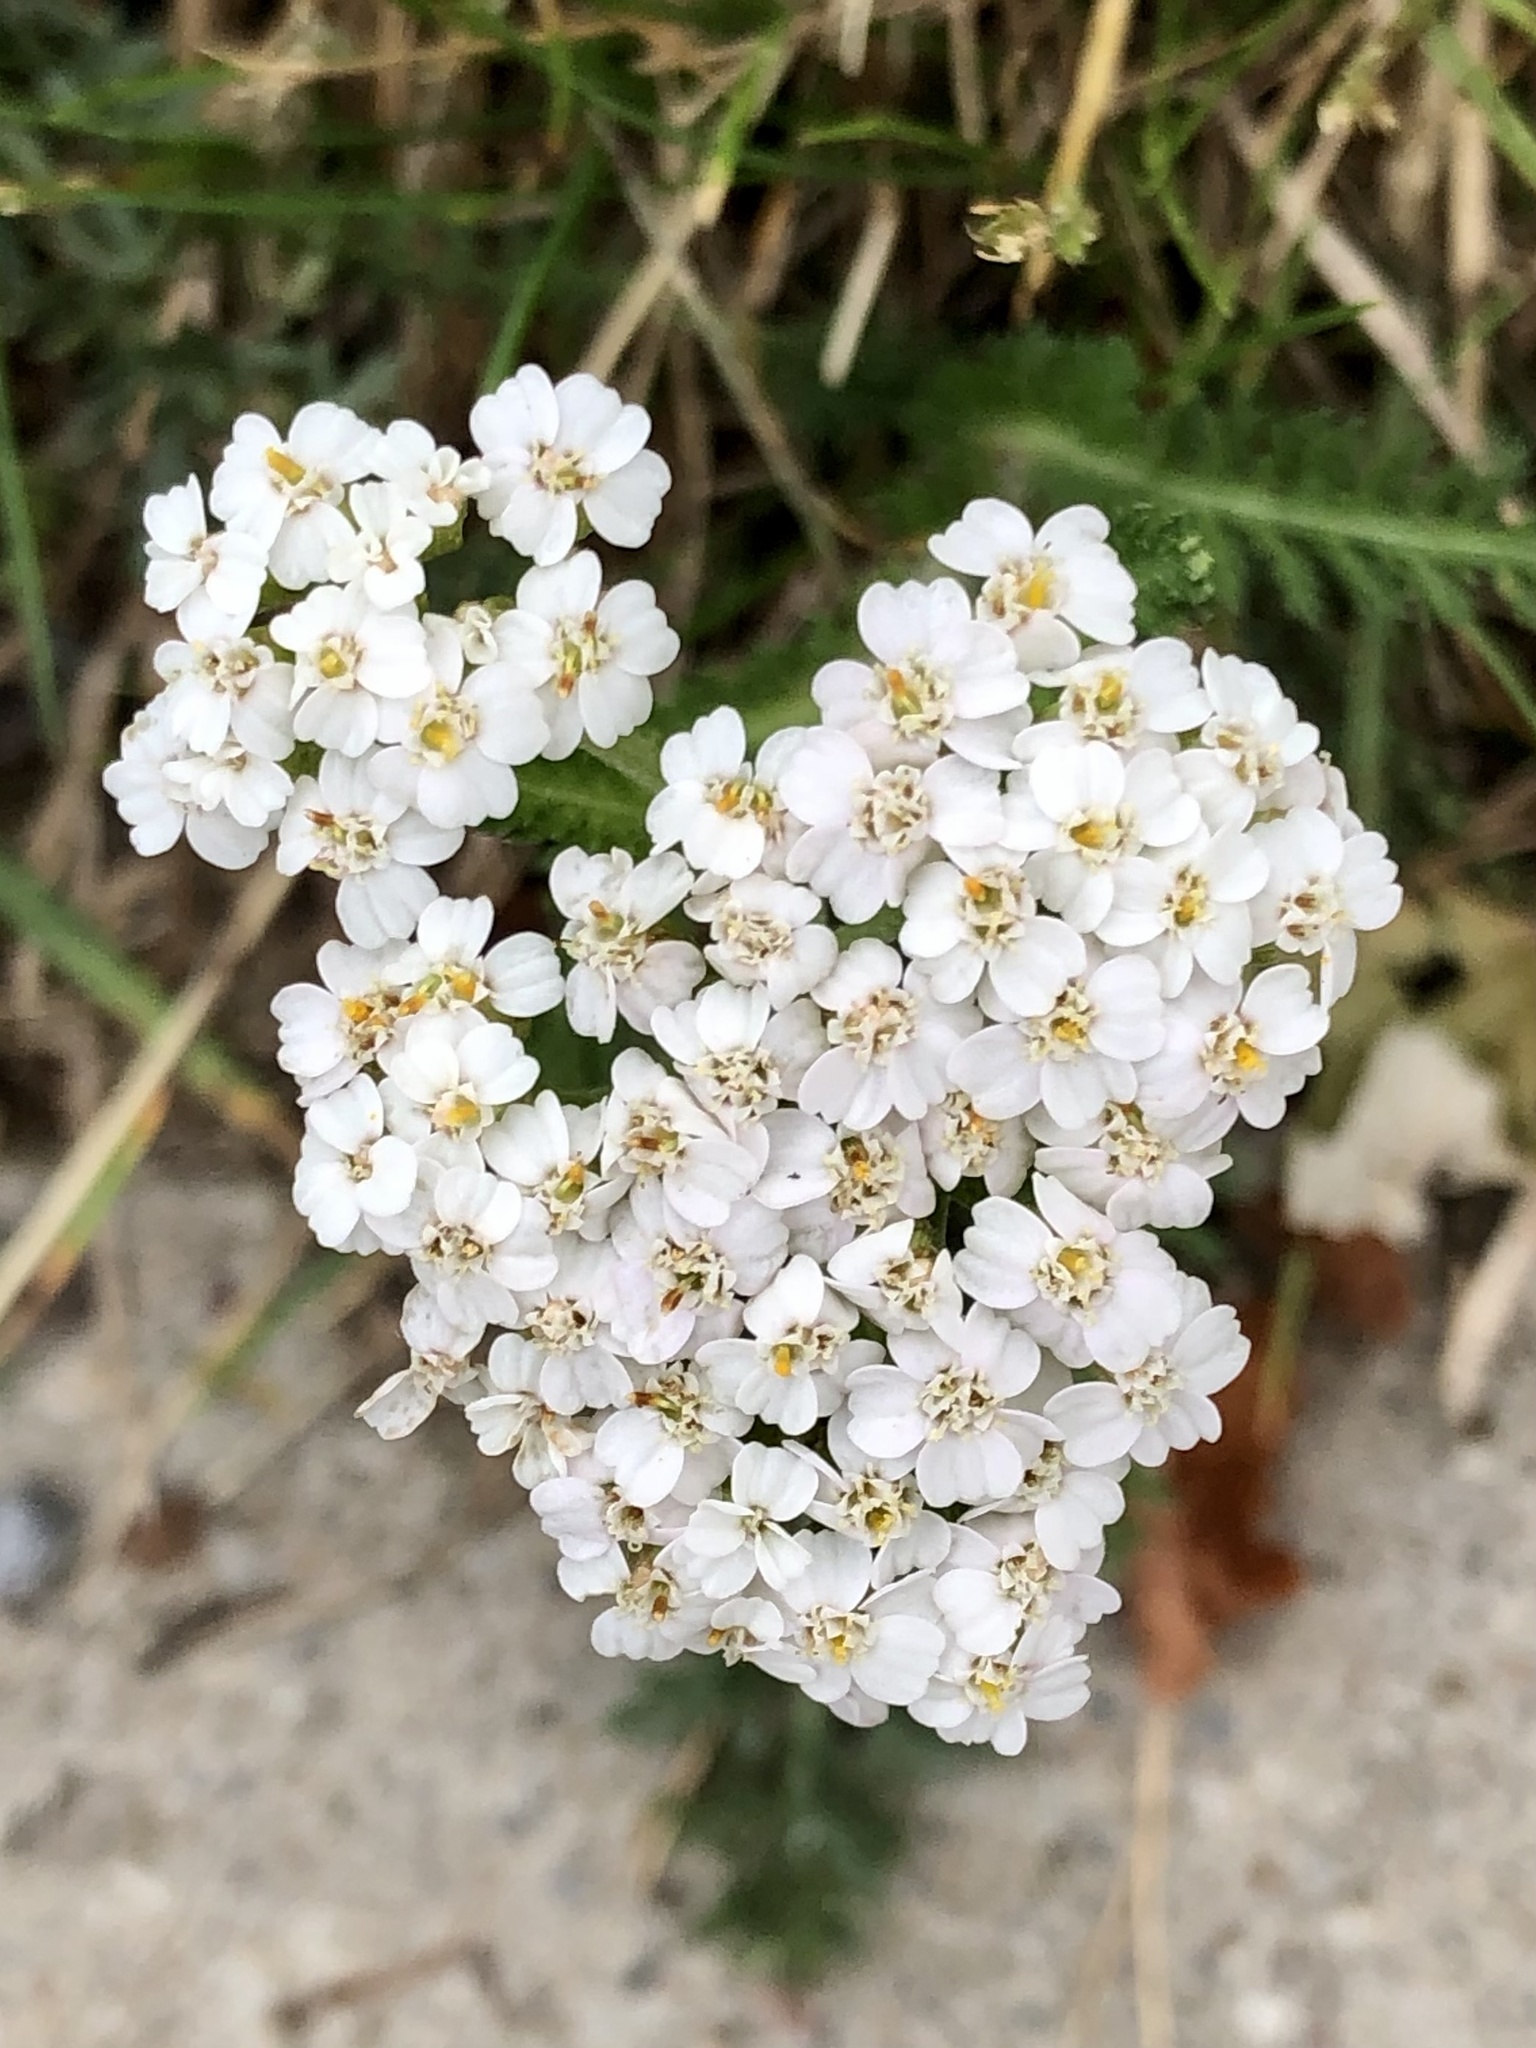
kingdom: Plantae
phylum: Tracheophyta
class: Magnoliopsida
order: Asterales
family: Asteraceae
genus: Achillea
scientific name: Achillea millefolium
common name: Yarrow
